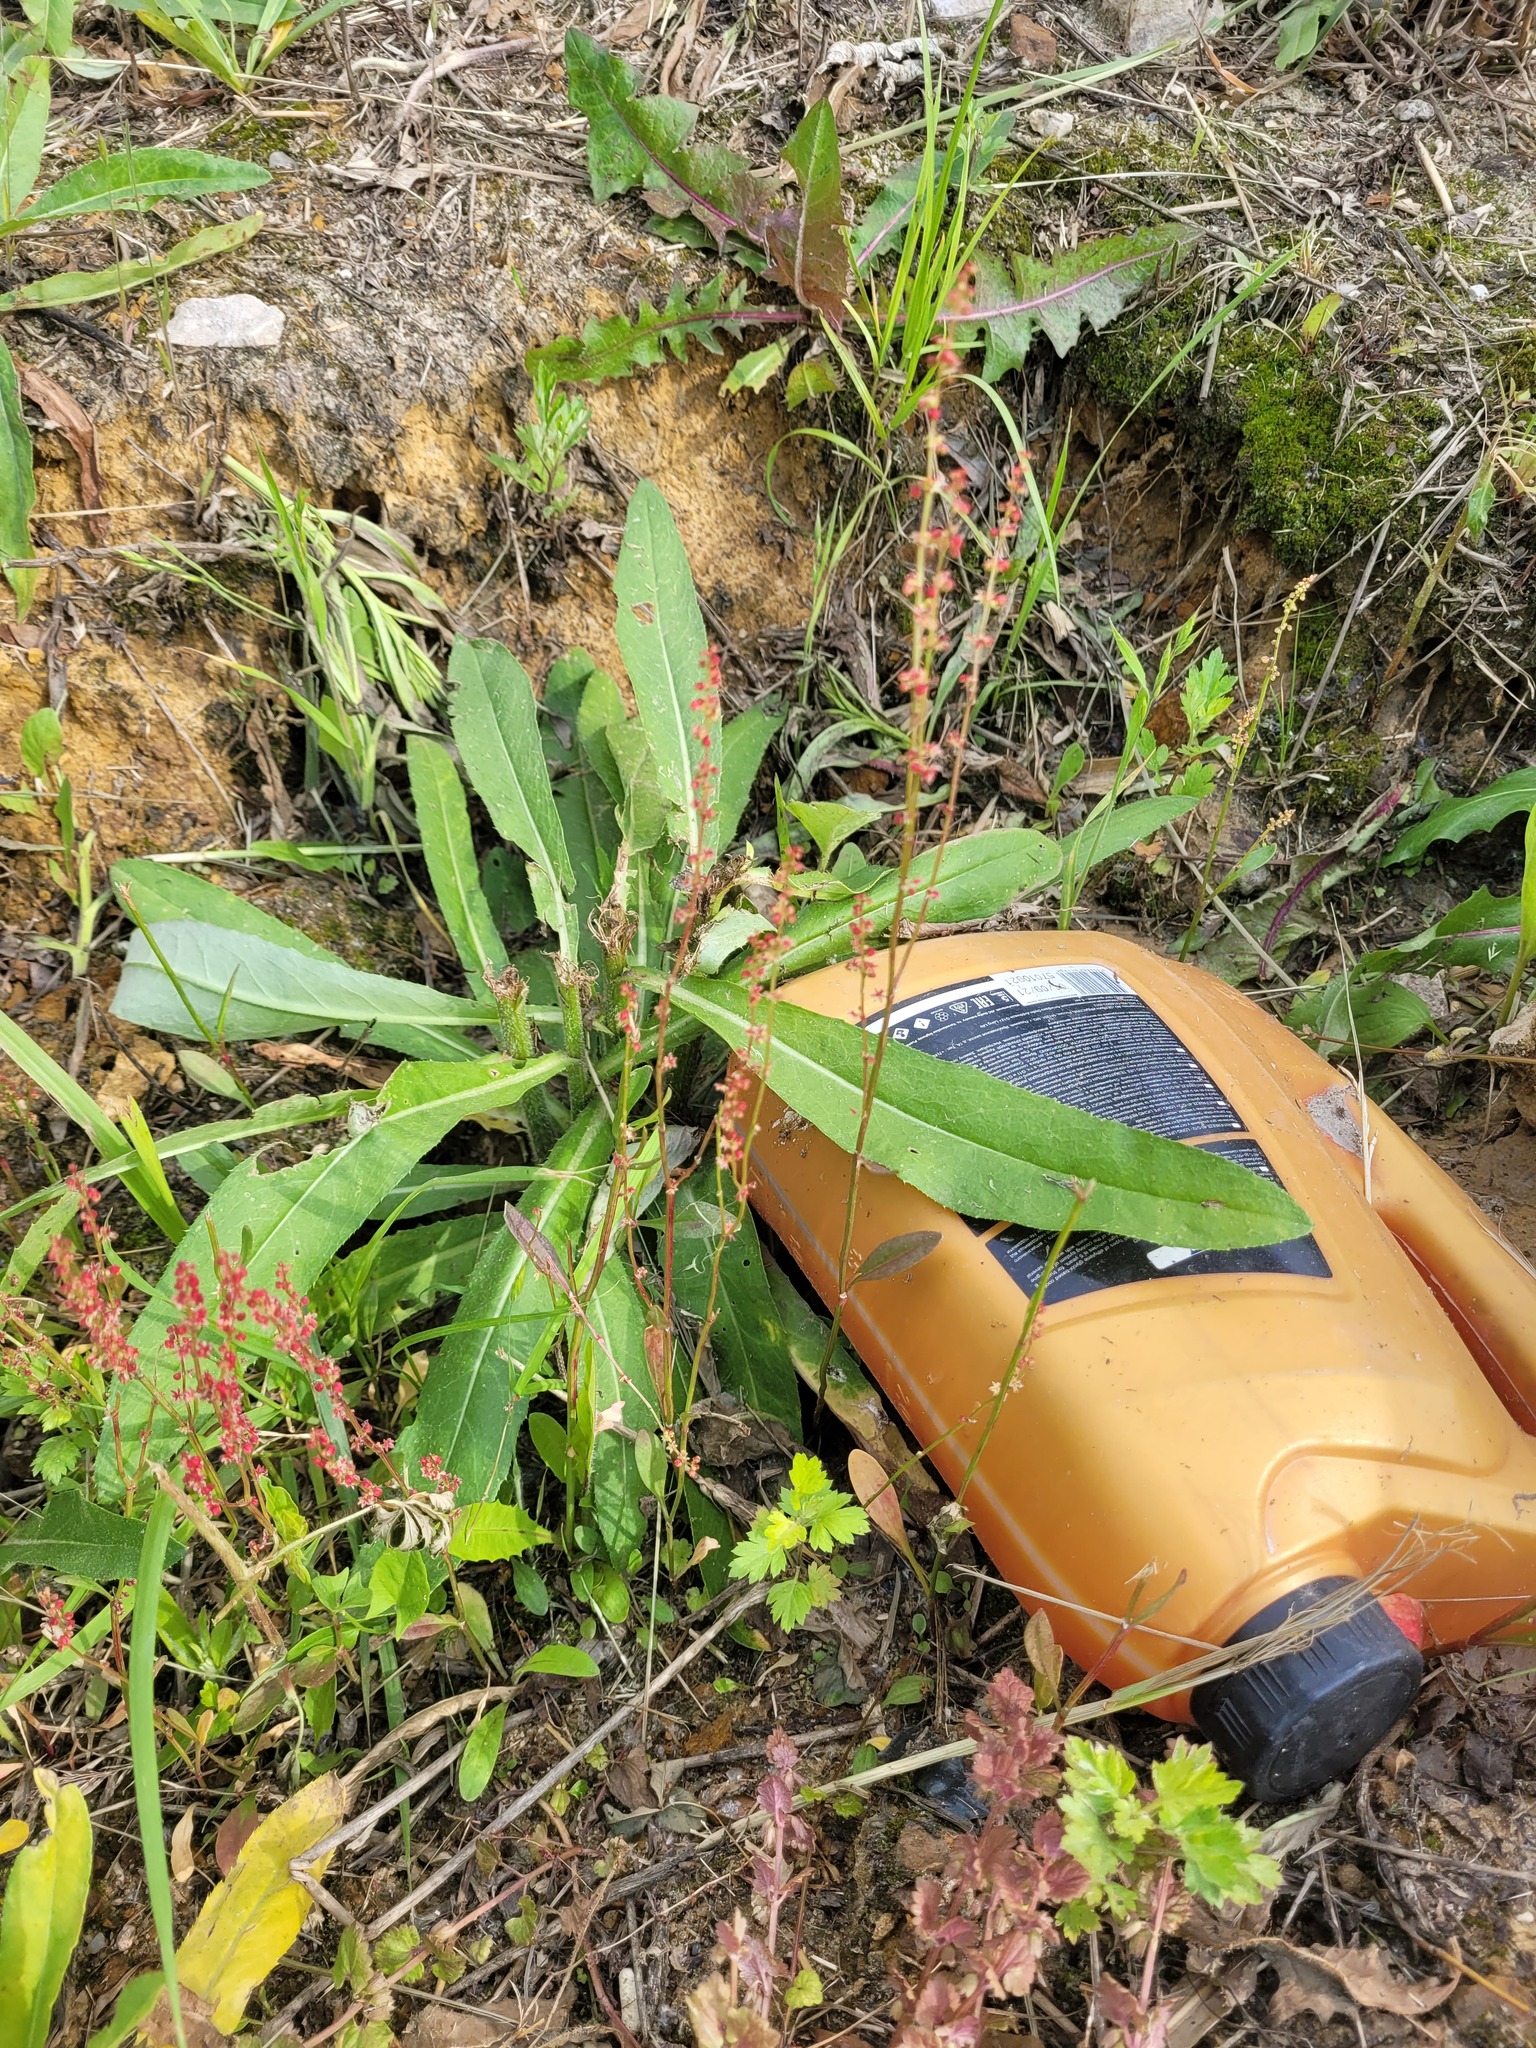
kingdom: Plantae
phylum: Tracheophyta
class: Magnoliopsida
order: Caryophyllales
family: Polygonaceae
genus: Rumex
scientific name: Rumex acetosella
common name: Common sheep sorrel
